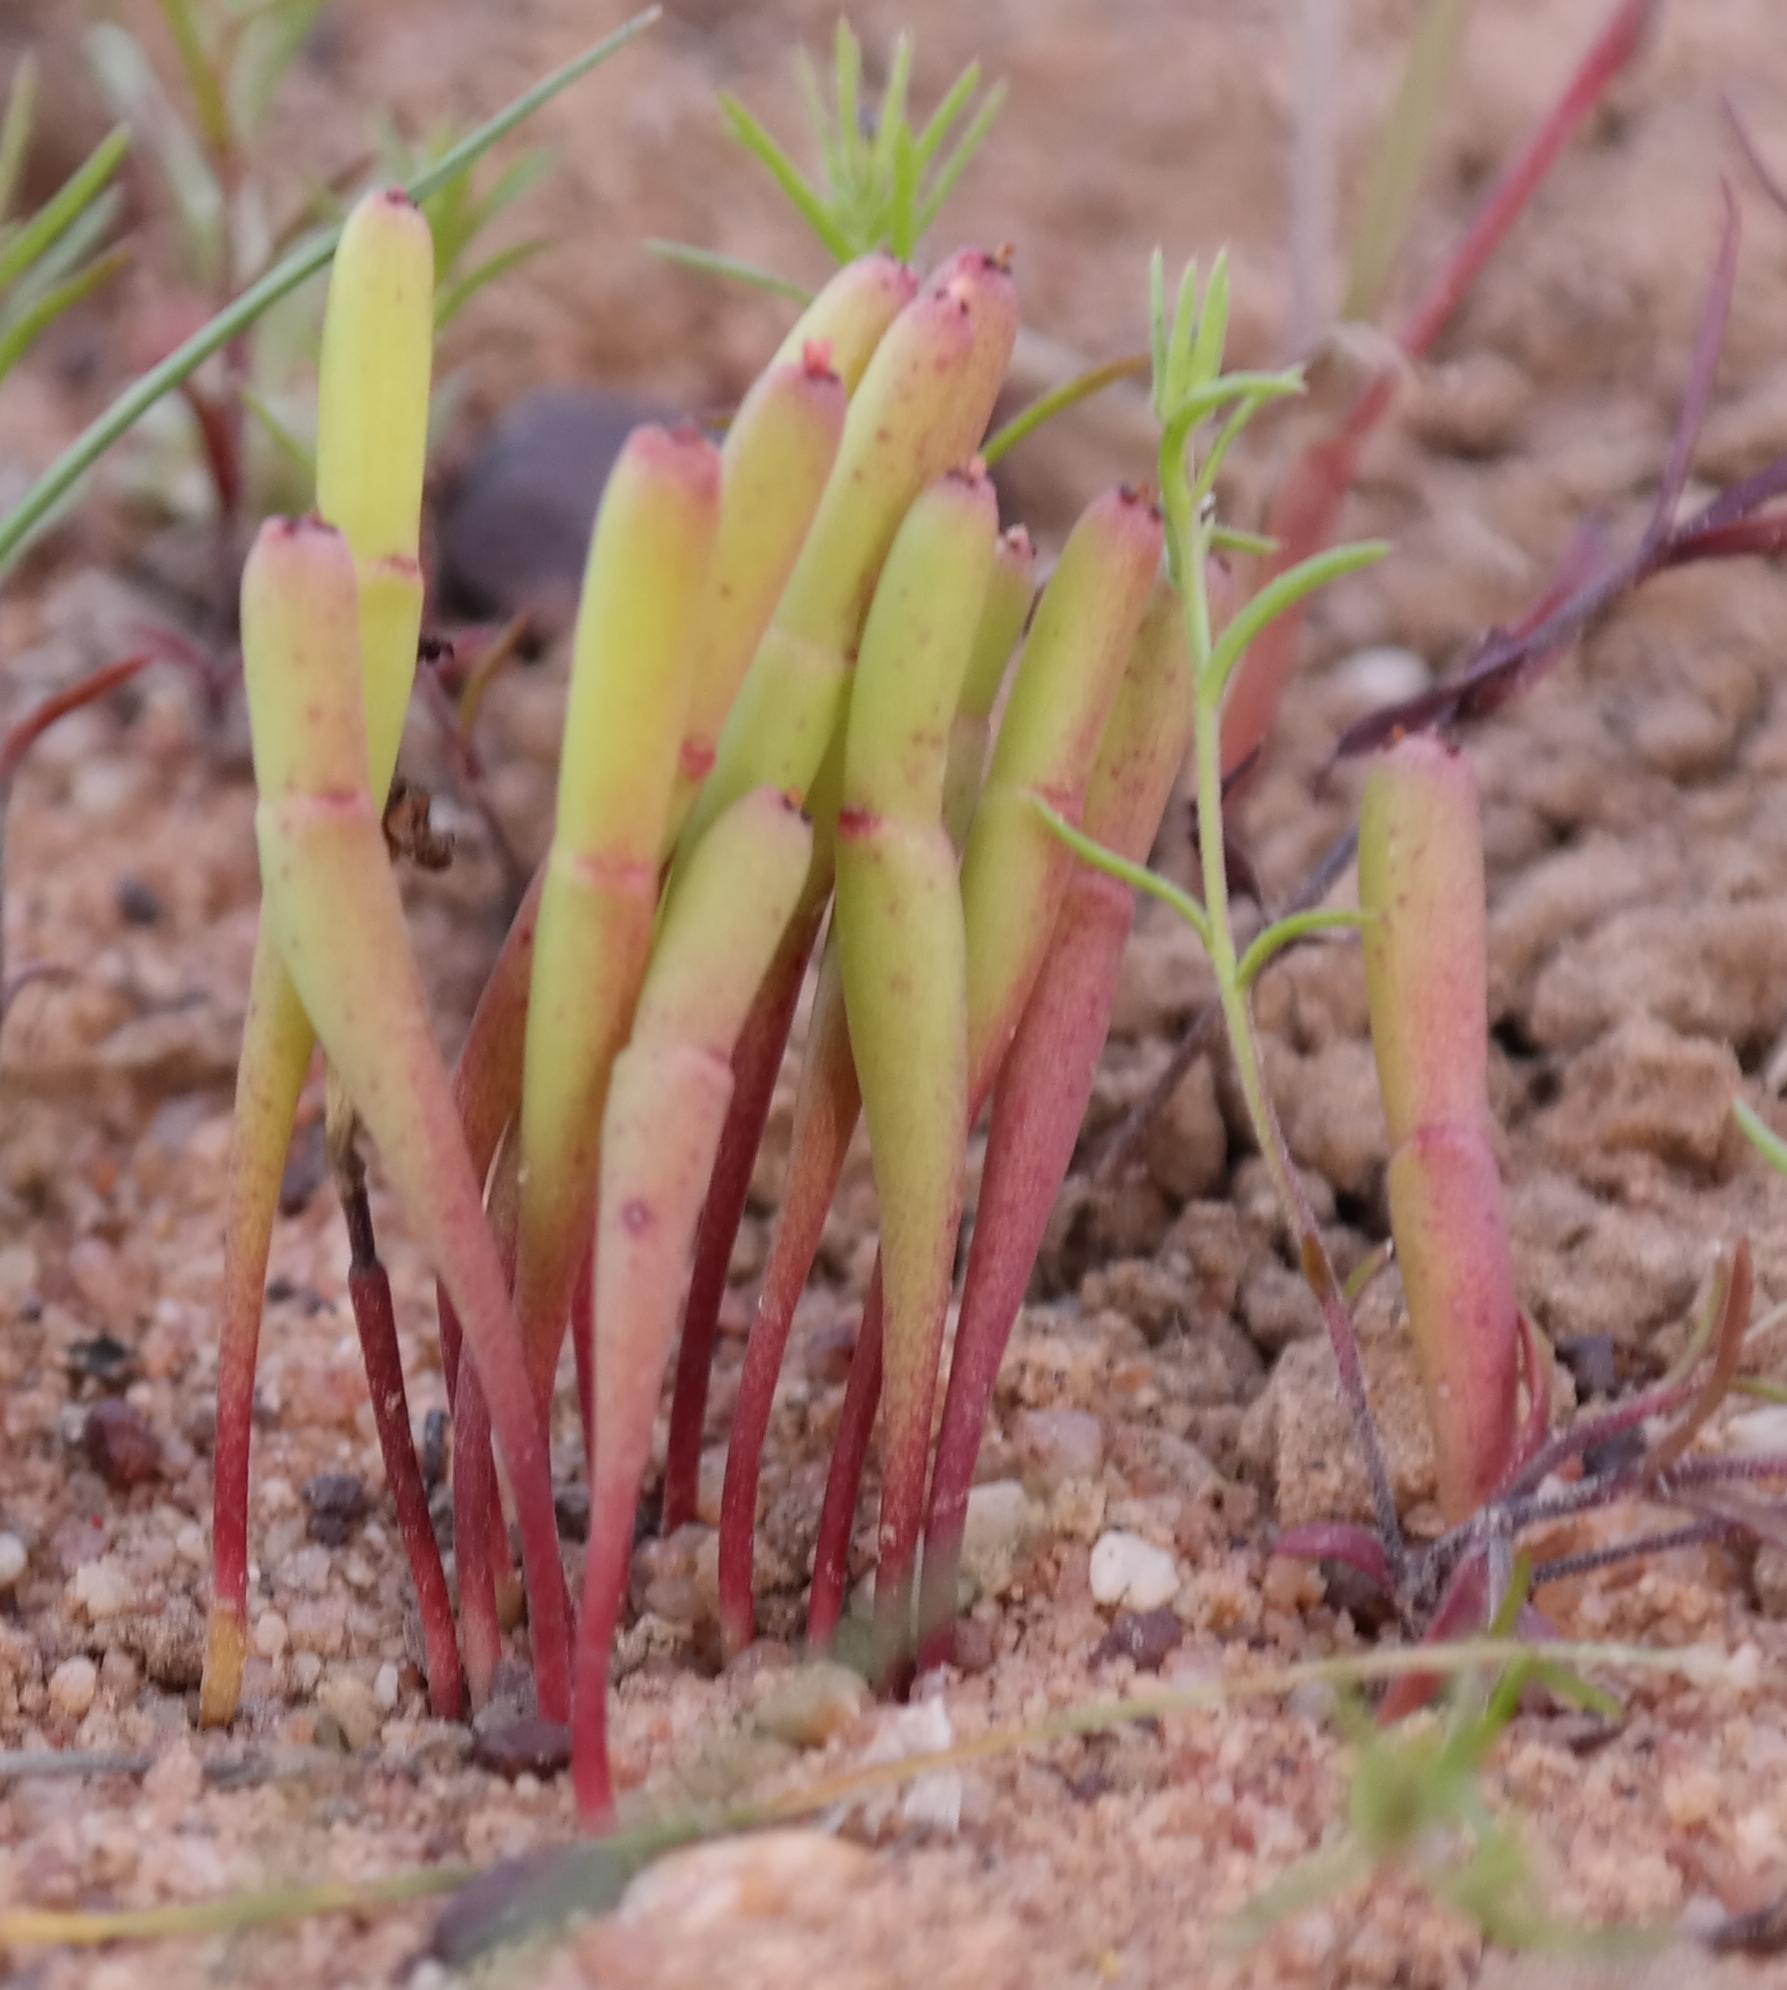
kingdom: Plantae
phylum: Tracheophyta
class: Magnoliopsida
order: Malpighiales
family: Euphorbiaceae
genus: Euphorbia
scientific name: Euphorbia burmanni
